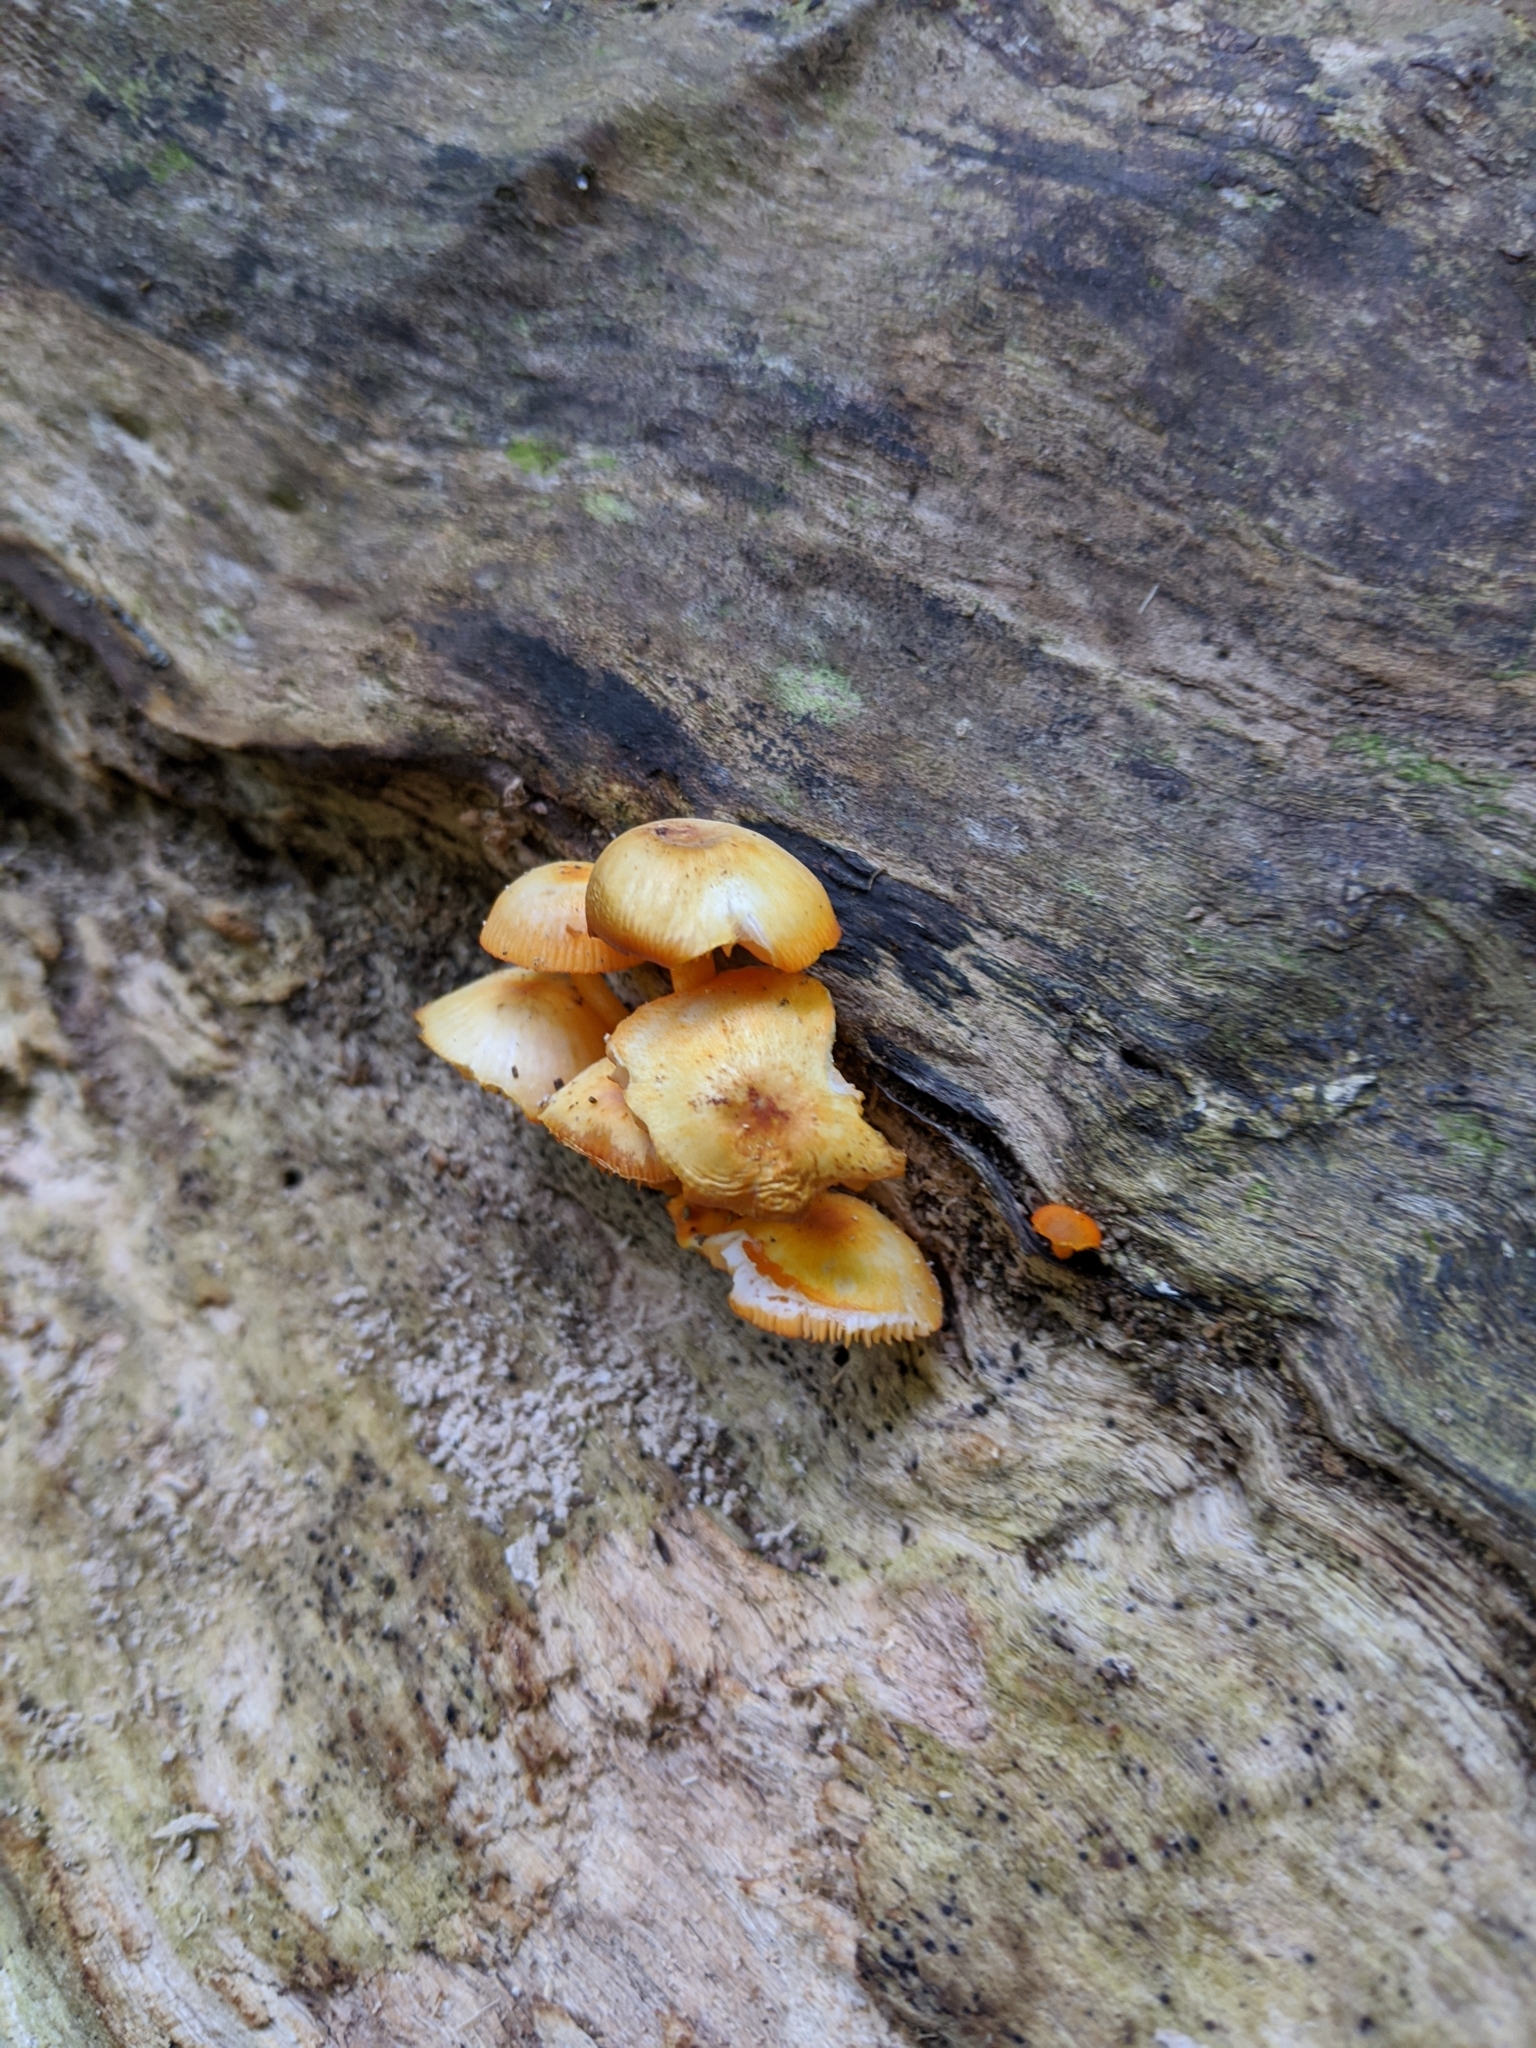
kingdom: Fungi
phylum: Basidiomycota
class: Agaricomycetes
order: Agaricales
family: Mycenaceae
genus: Mycena
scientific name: Mycena leaiana
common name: Orange mycena
